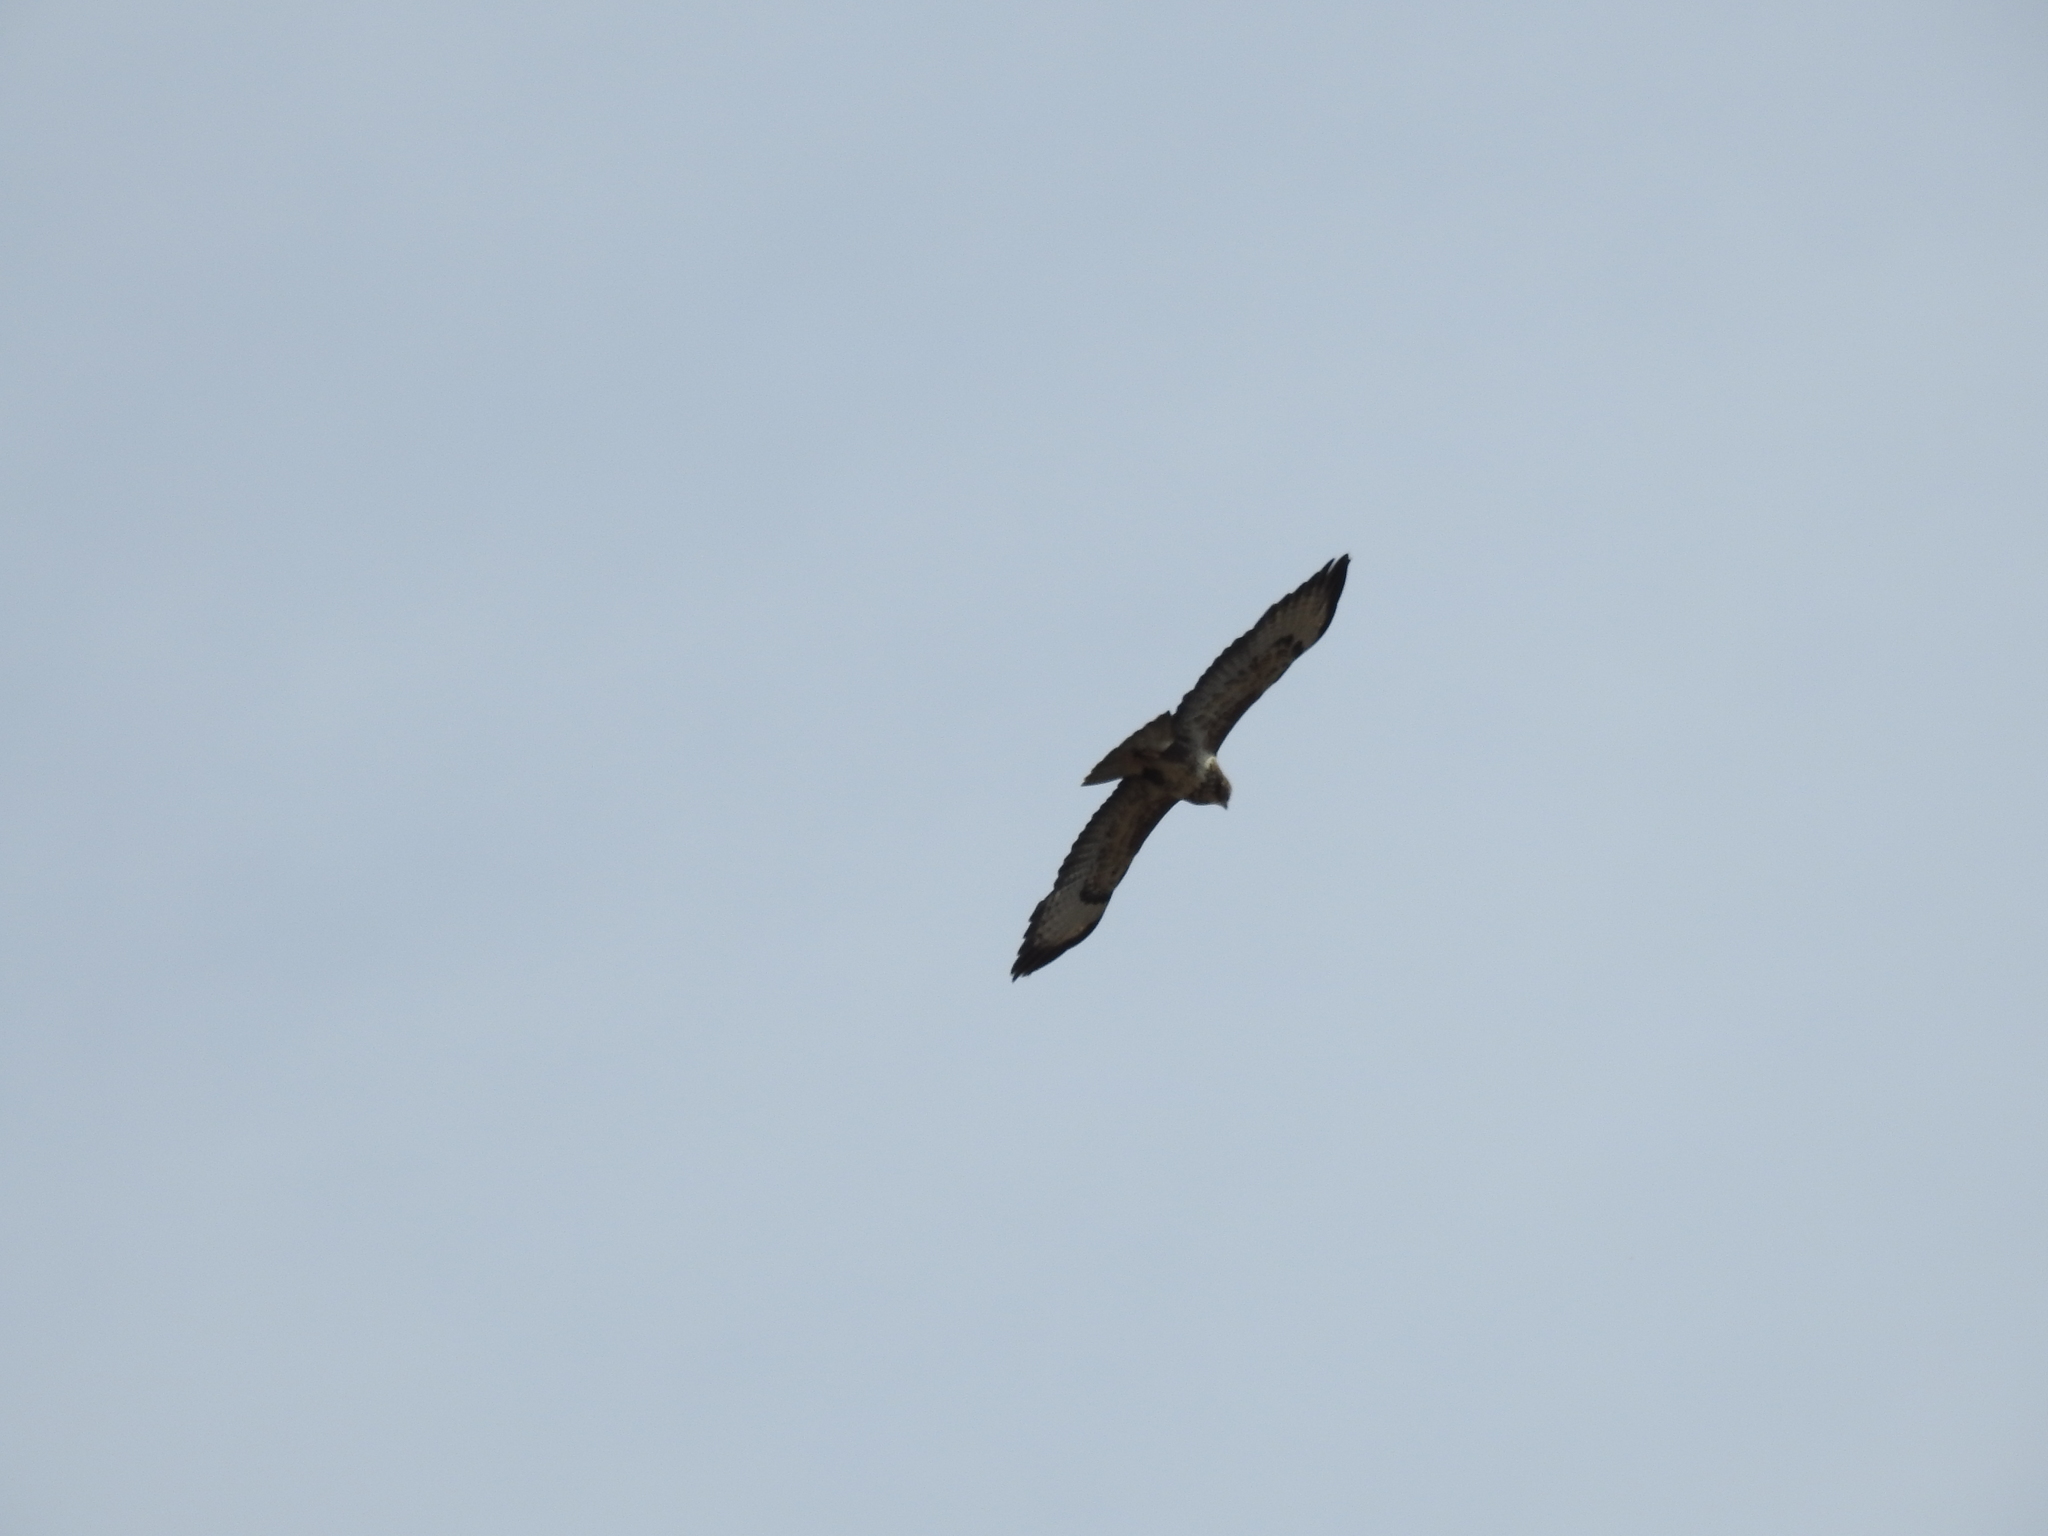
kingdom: Animalia
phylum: Chordata
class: Aves
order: Accipitriformes
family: Accipitridae
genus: Buteo
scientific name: Buteo buteo
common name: Common buzzard
